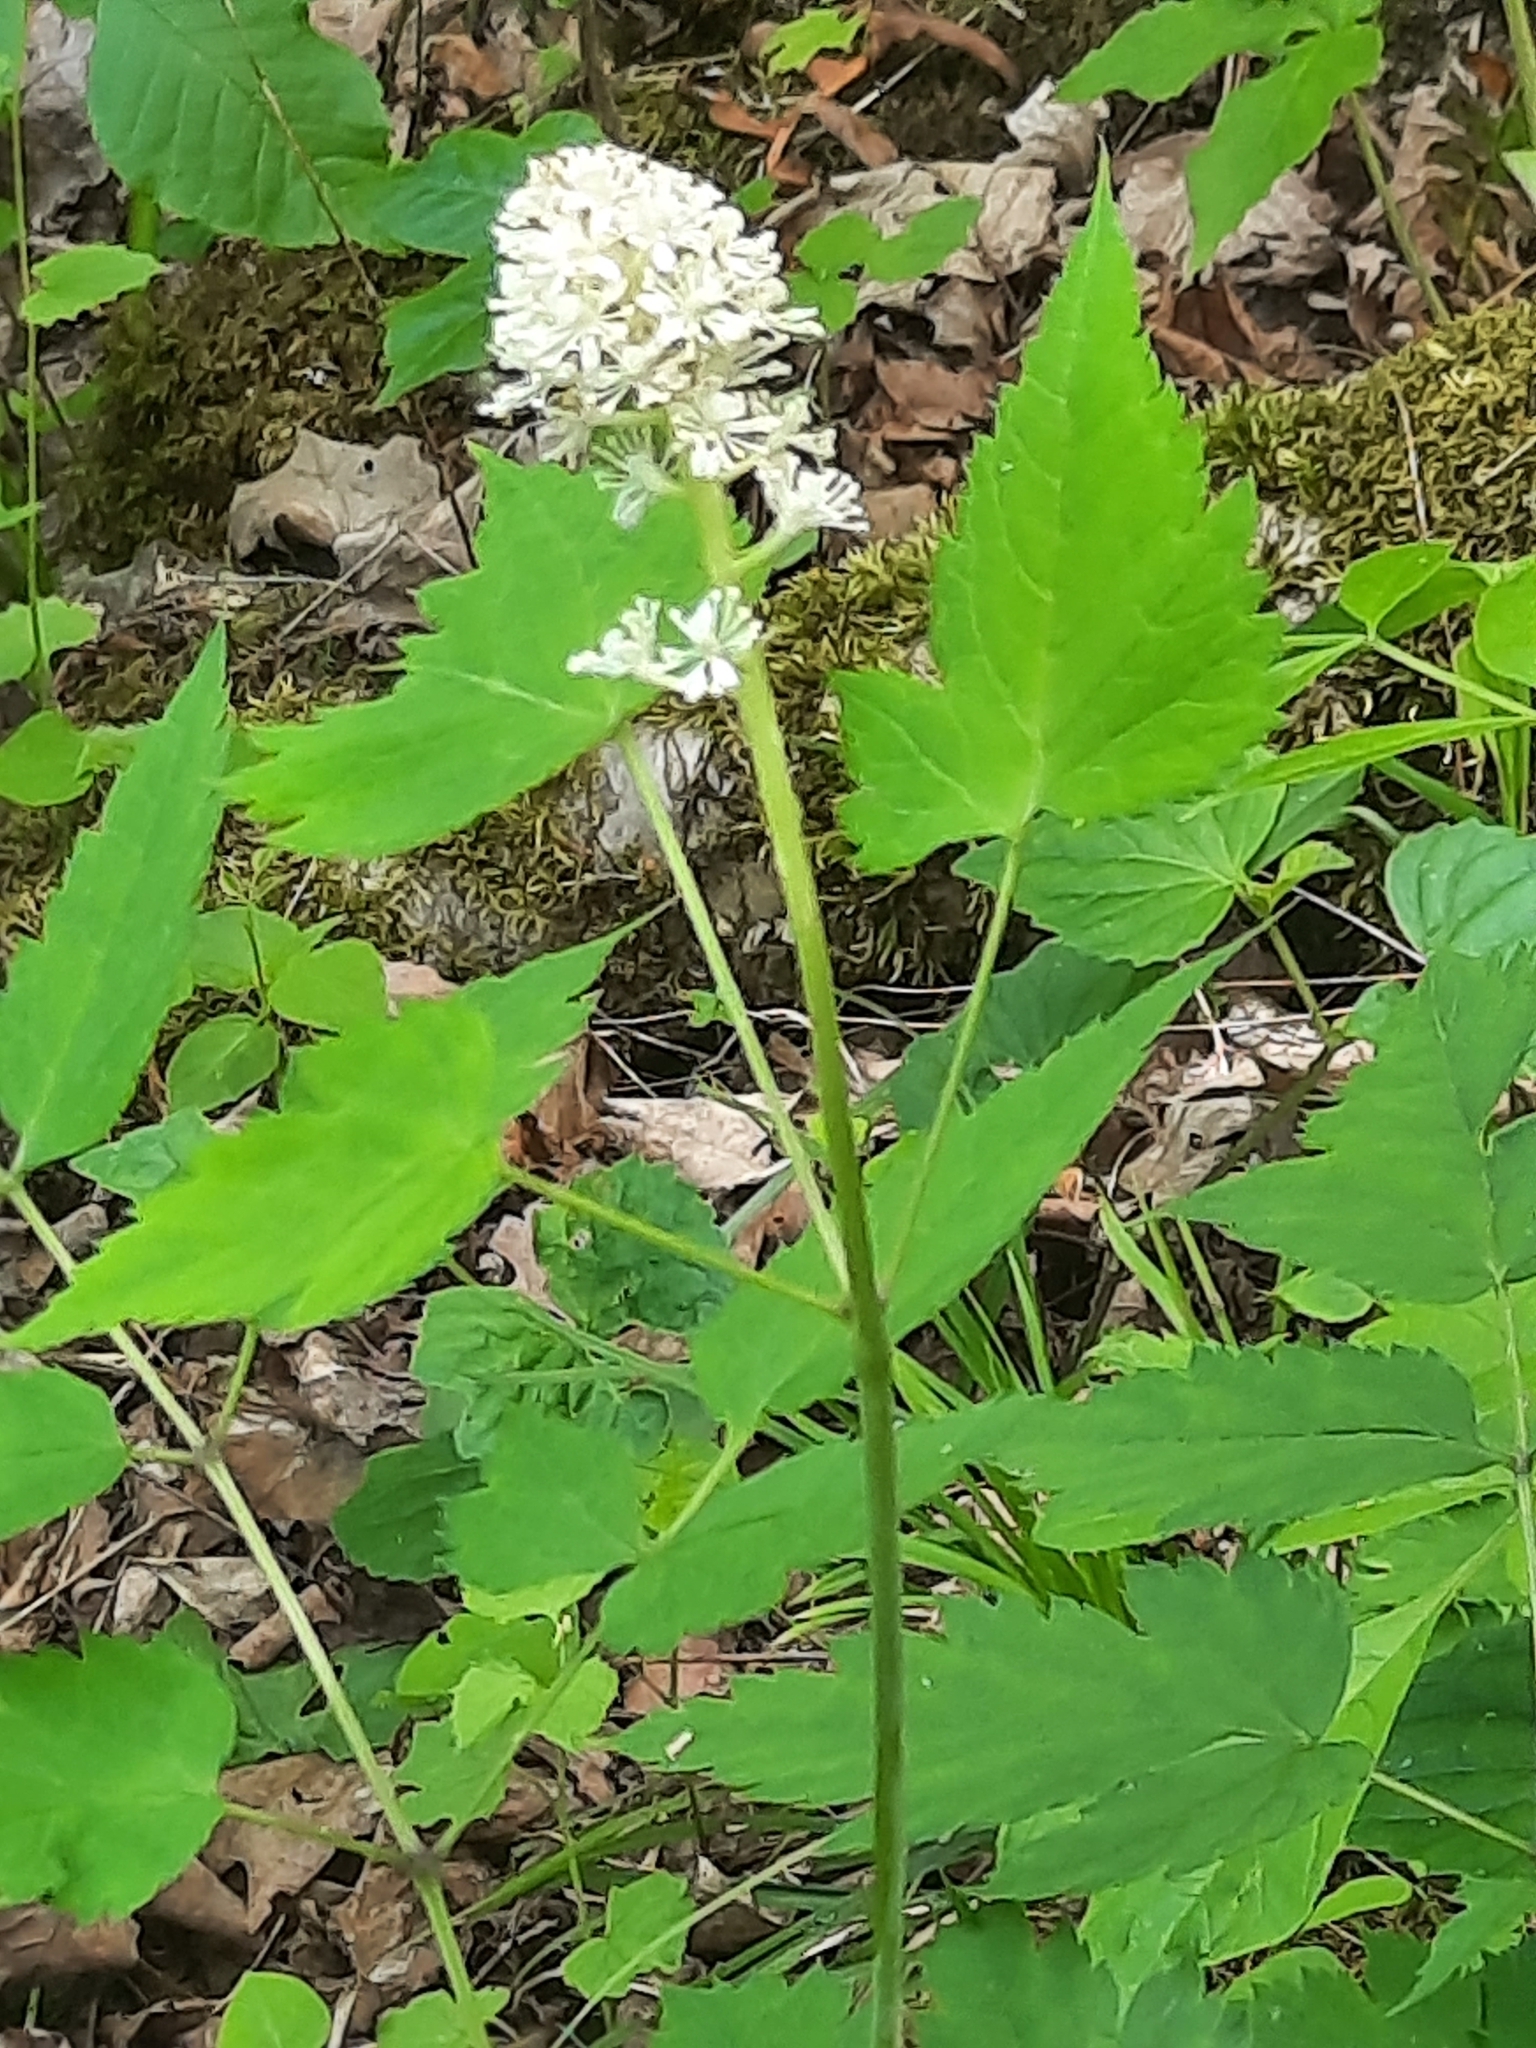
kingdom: Plantae
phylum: Tracheophyta
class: Magnoliopsida
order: Ranunculales
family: Ranunculaceae
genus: Actaea
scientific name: Actaea pachypoda
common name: Doll's-eyes
